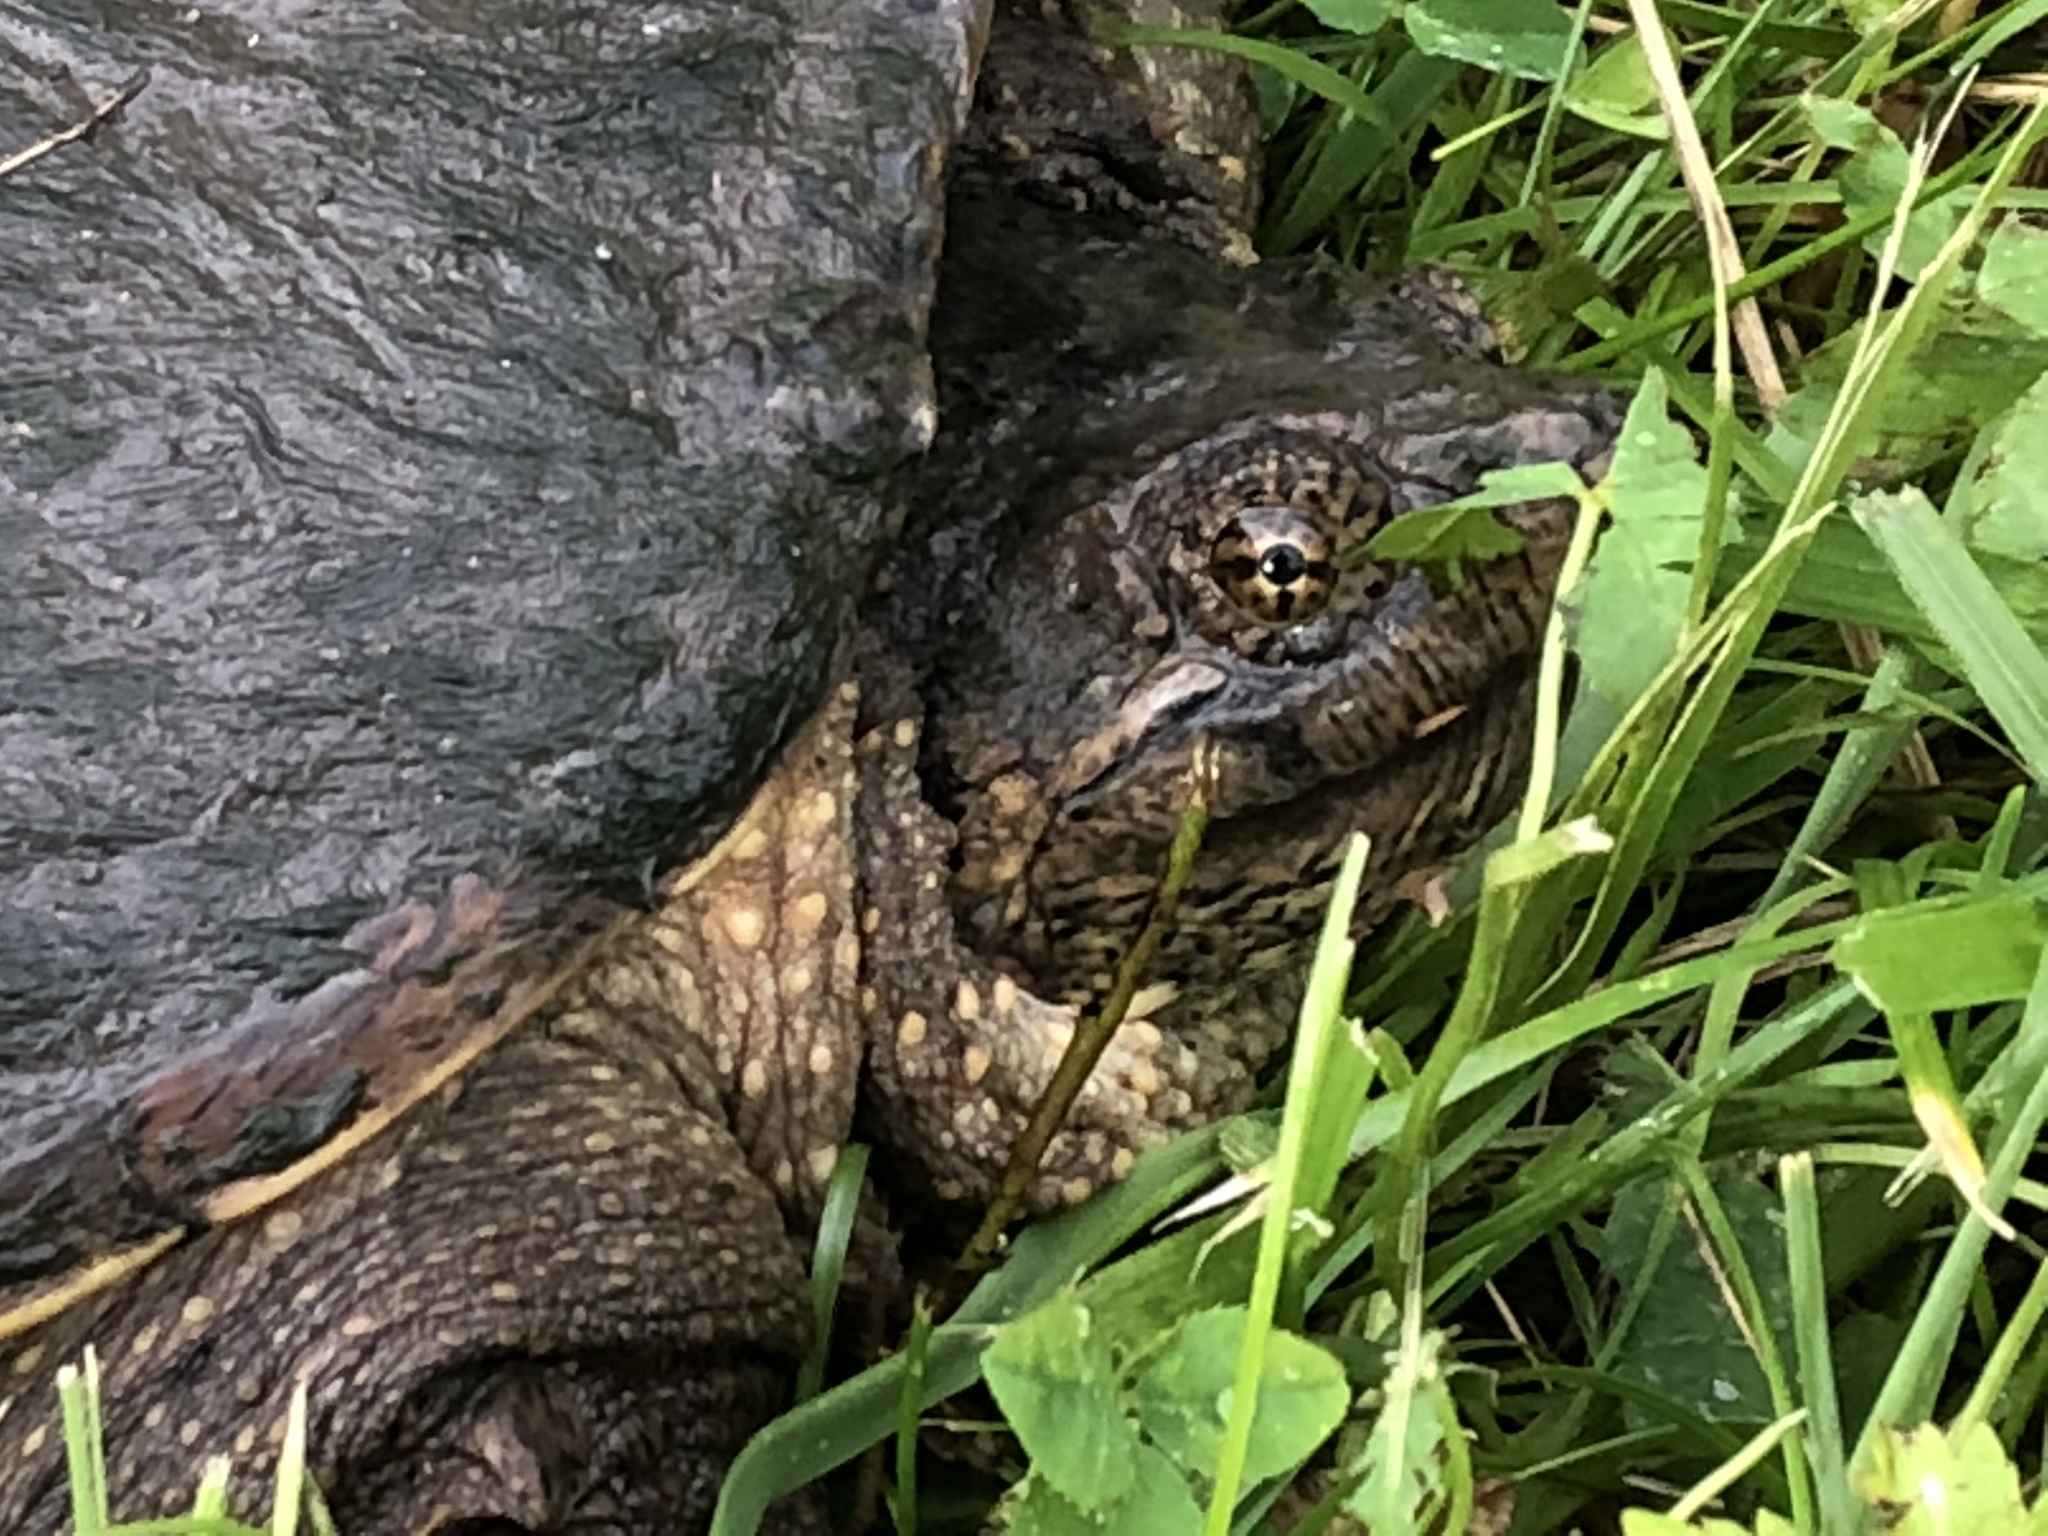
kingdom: Animalia
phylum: Chordata
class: Testudines
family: Chelydridae
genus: Chelydra
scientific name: Chelydra serpentina
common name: Common snapping turtle
